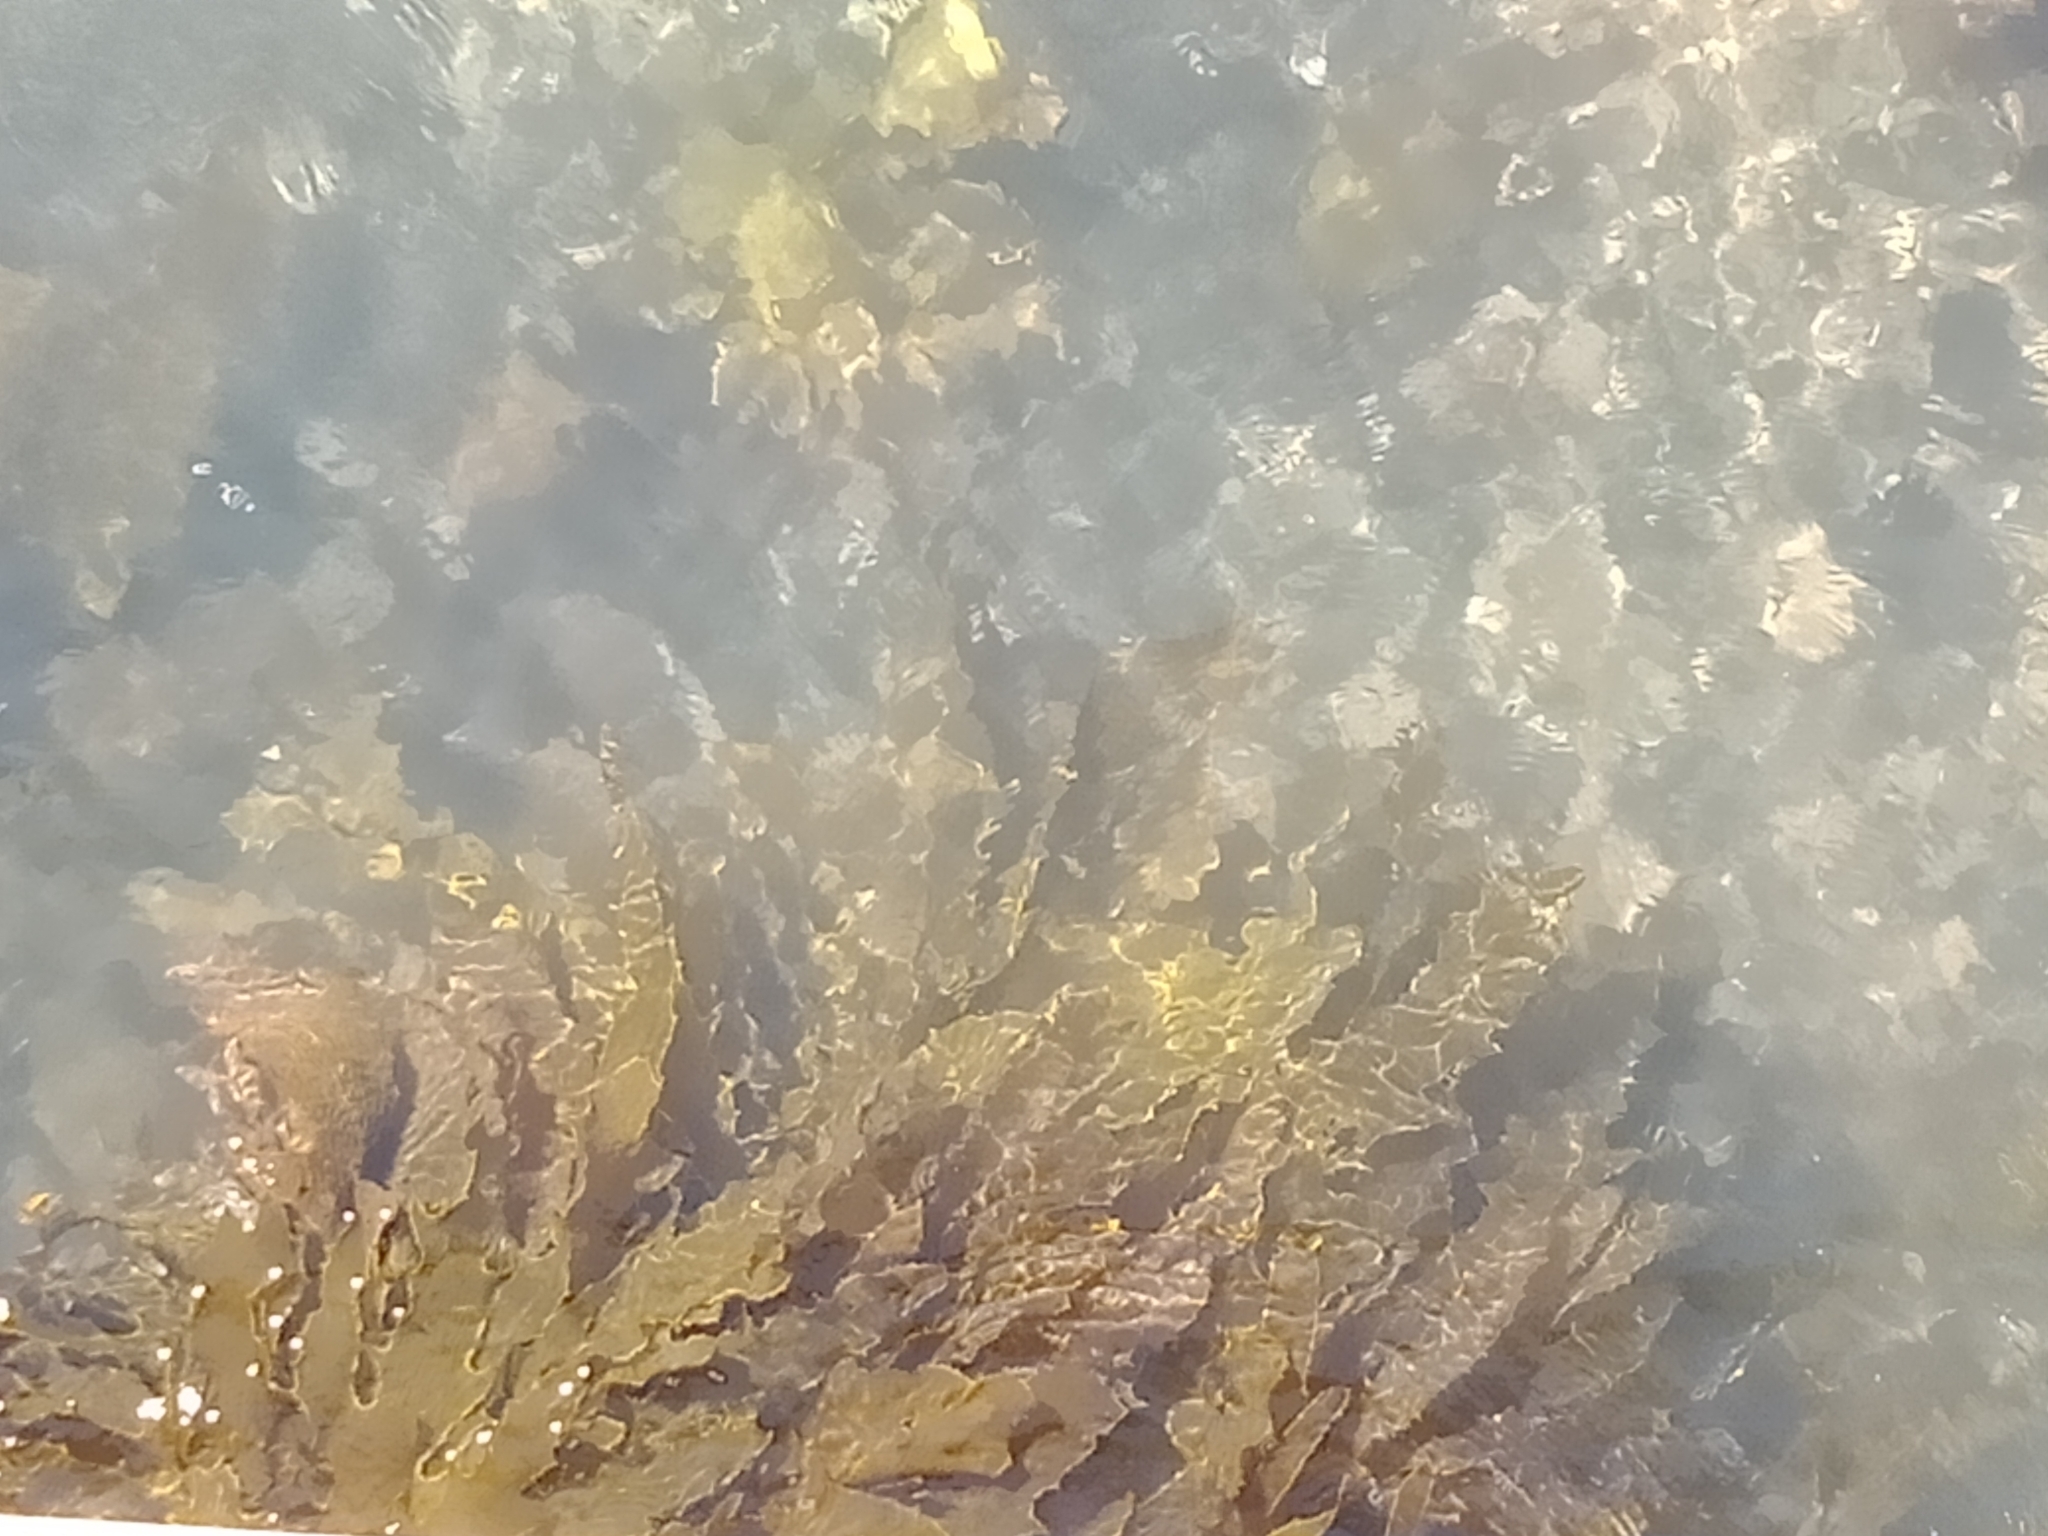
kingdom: Chromista
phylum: Ochrophyta
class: Phaeophyceae
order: Laminariales
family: Lessoniaceae
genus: Ecklonia
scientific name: Ecklonia radiata
